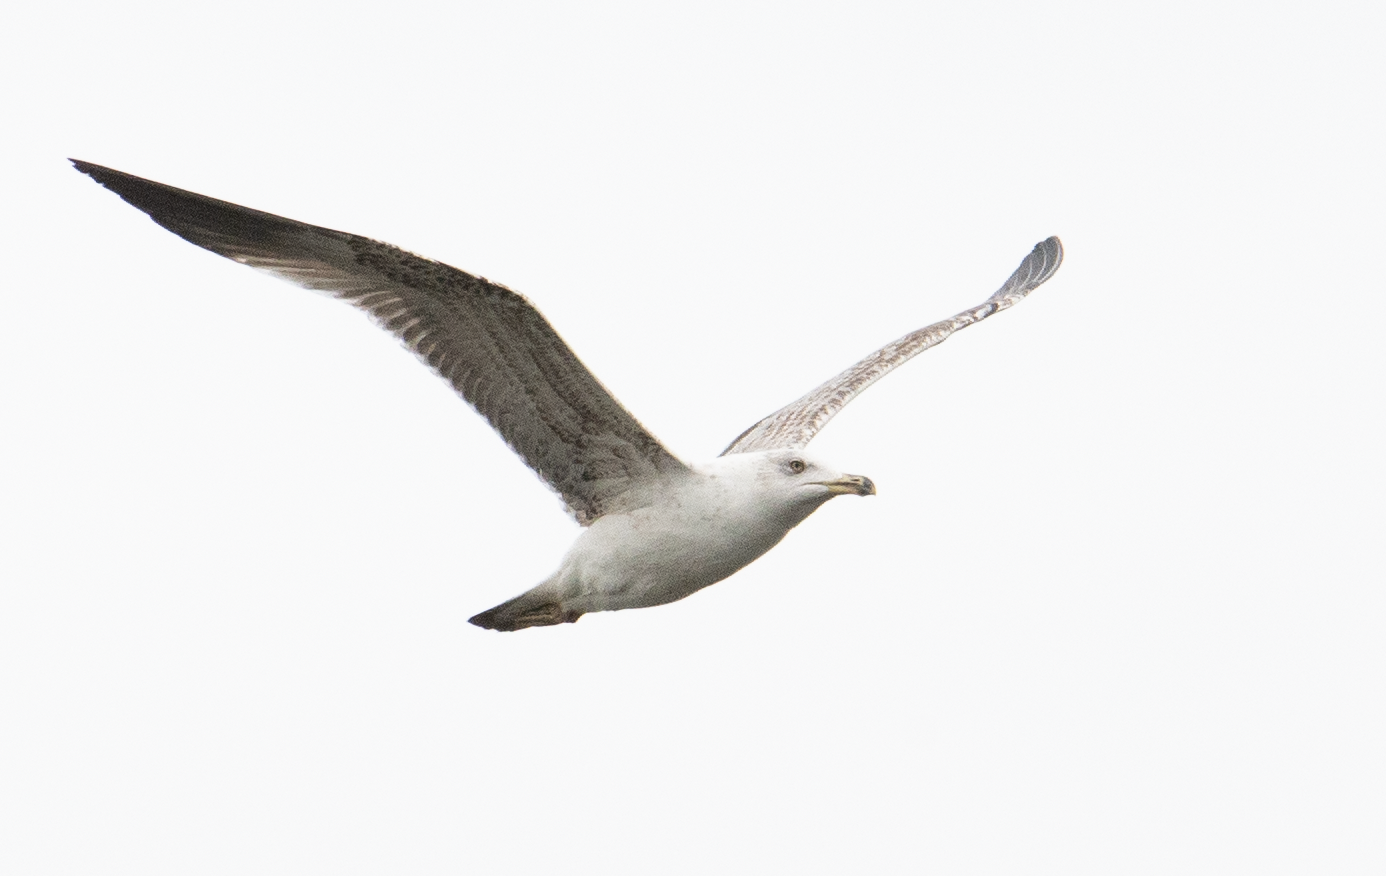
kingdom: Animalia
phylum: Chordata
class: Aves
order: Charadriiformes
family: Laridae
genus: Larus
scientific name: Larus michahellis
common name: Yellow-legged gull
